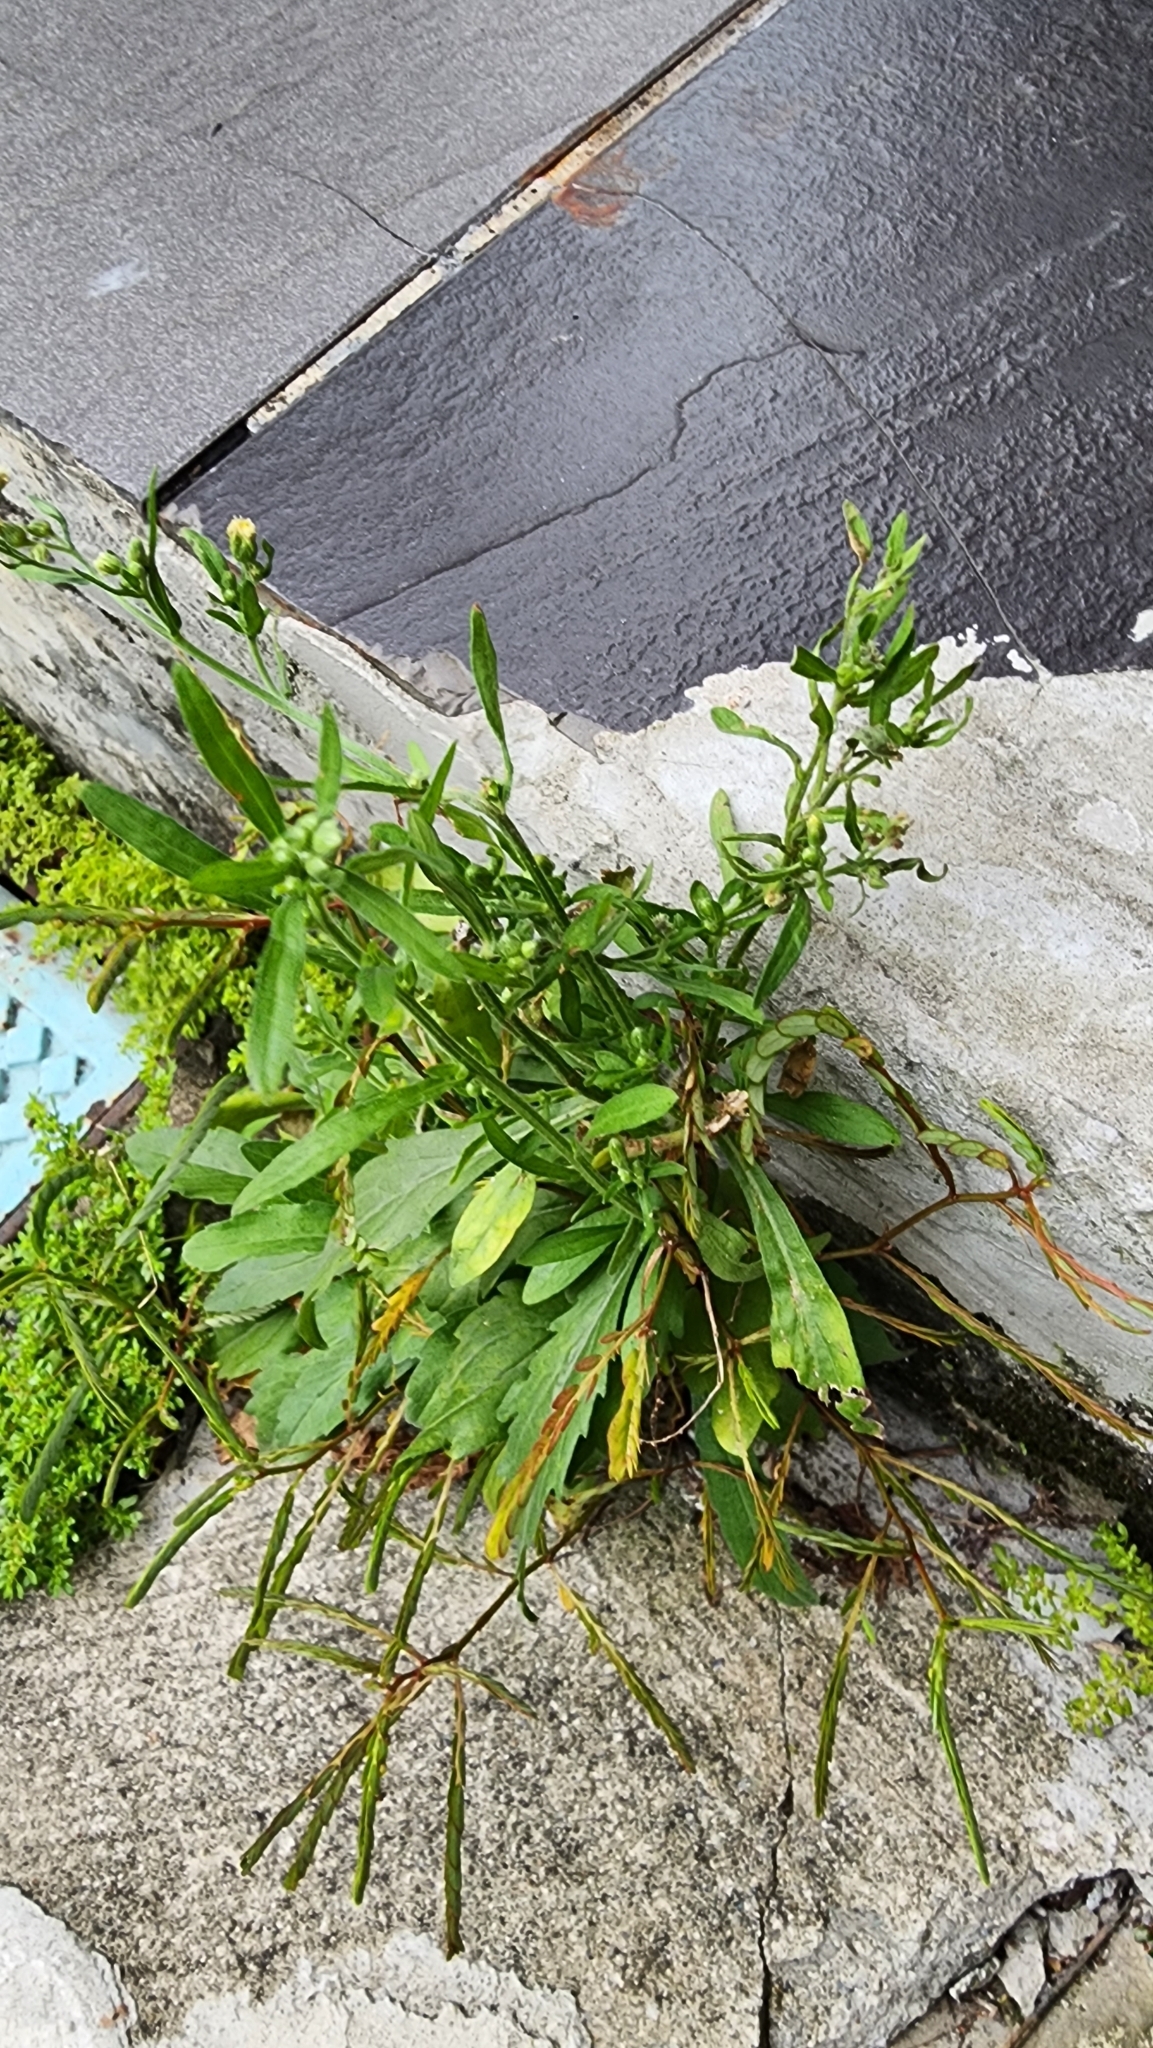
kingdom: Plantae
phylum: Tracheophyta
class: Magnoliopsida
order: Asterales
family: Asteraceae
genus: Erigeron
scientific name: Erigeron sumatrensis
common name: Daisy
